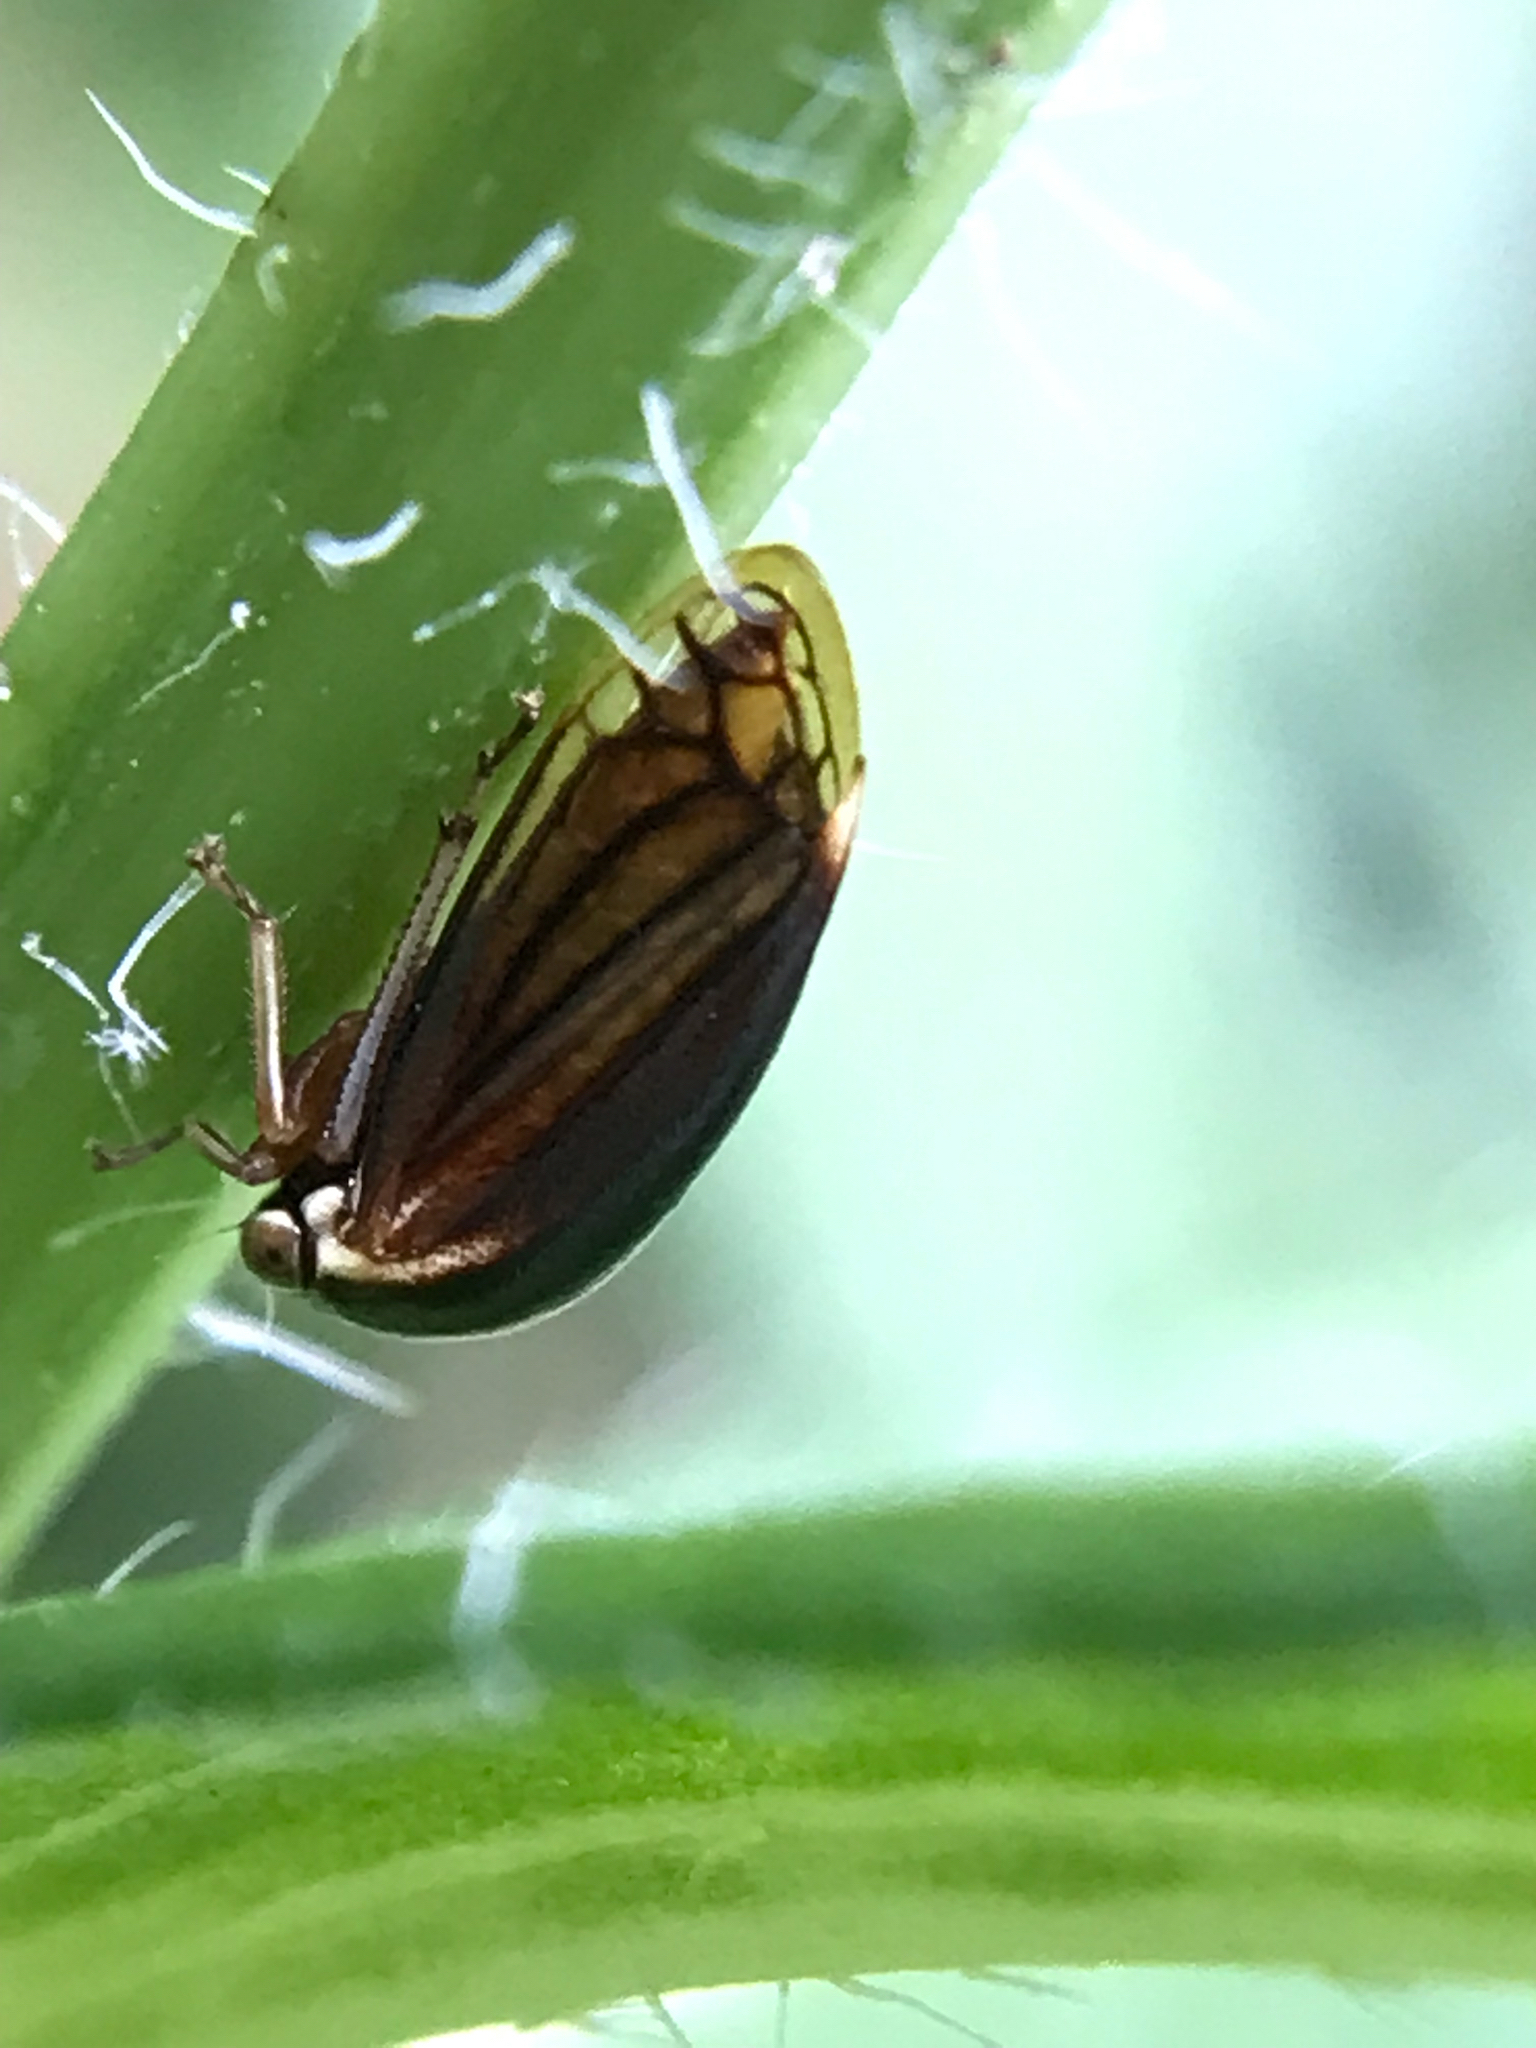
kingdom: Animalia
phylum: Arthropoda
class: Insecta
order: Hemiptera
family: Membracidae
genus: Acutalis
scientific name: Acutalis tartarea
